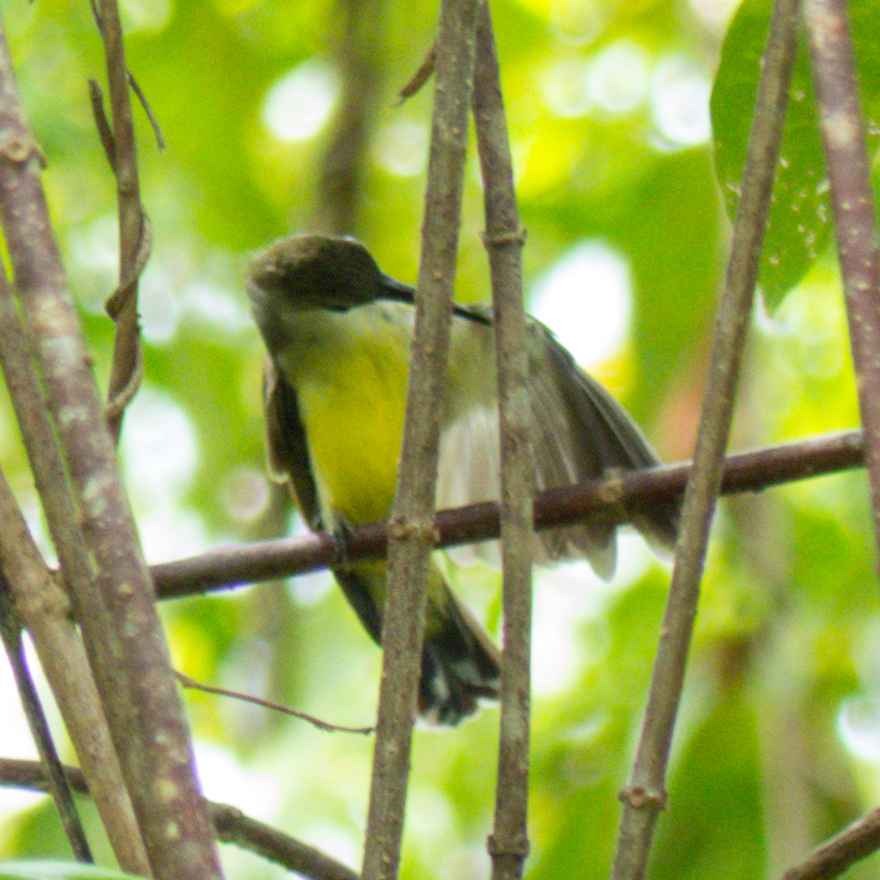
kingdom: Animalia
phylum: Chordata
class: Aves
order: Passeriformes
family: Nectariniidae
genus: Arachnothera
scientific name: Arachnothera longirostra
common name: Little spiderhunter
